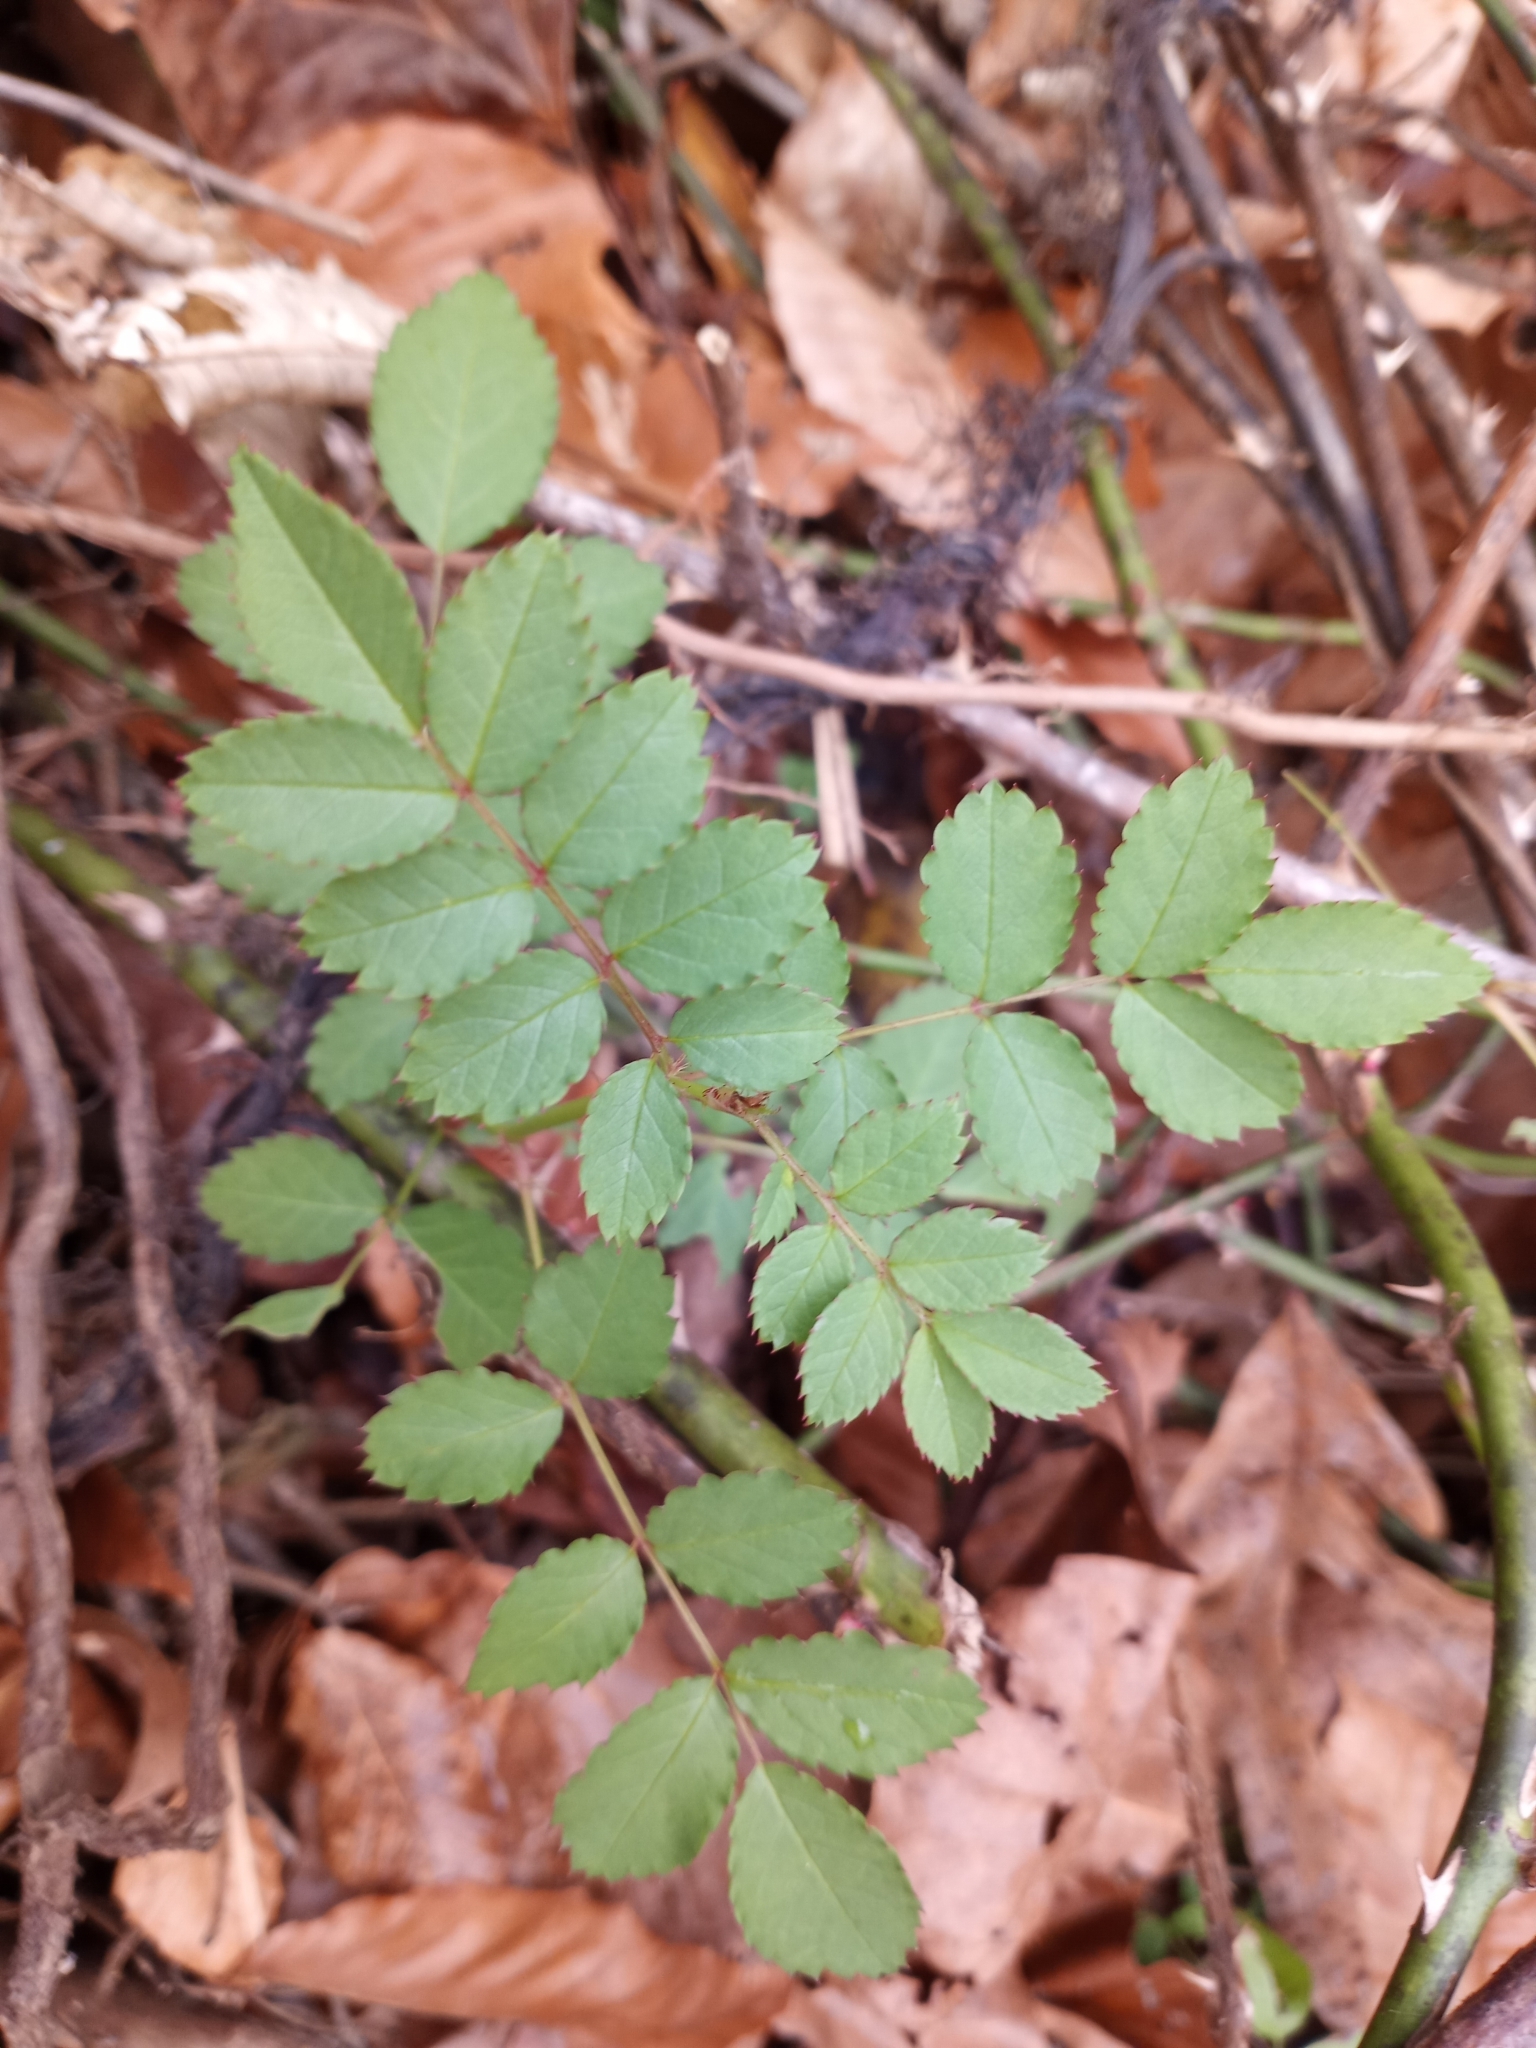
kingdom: Plantae
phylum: Tracheophyta
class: Magnoliopsida
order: Rosales
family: Rosaceae
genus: Rosa
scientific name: Rosa multiflora
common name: Multiflora rose
